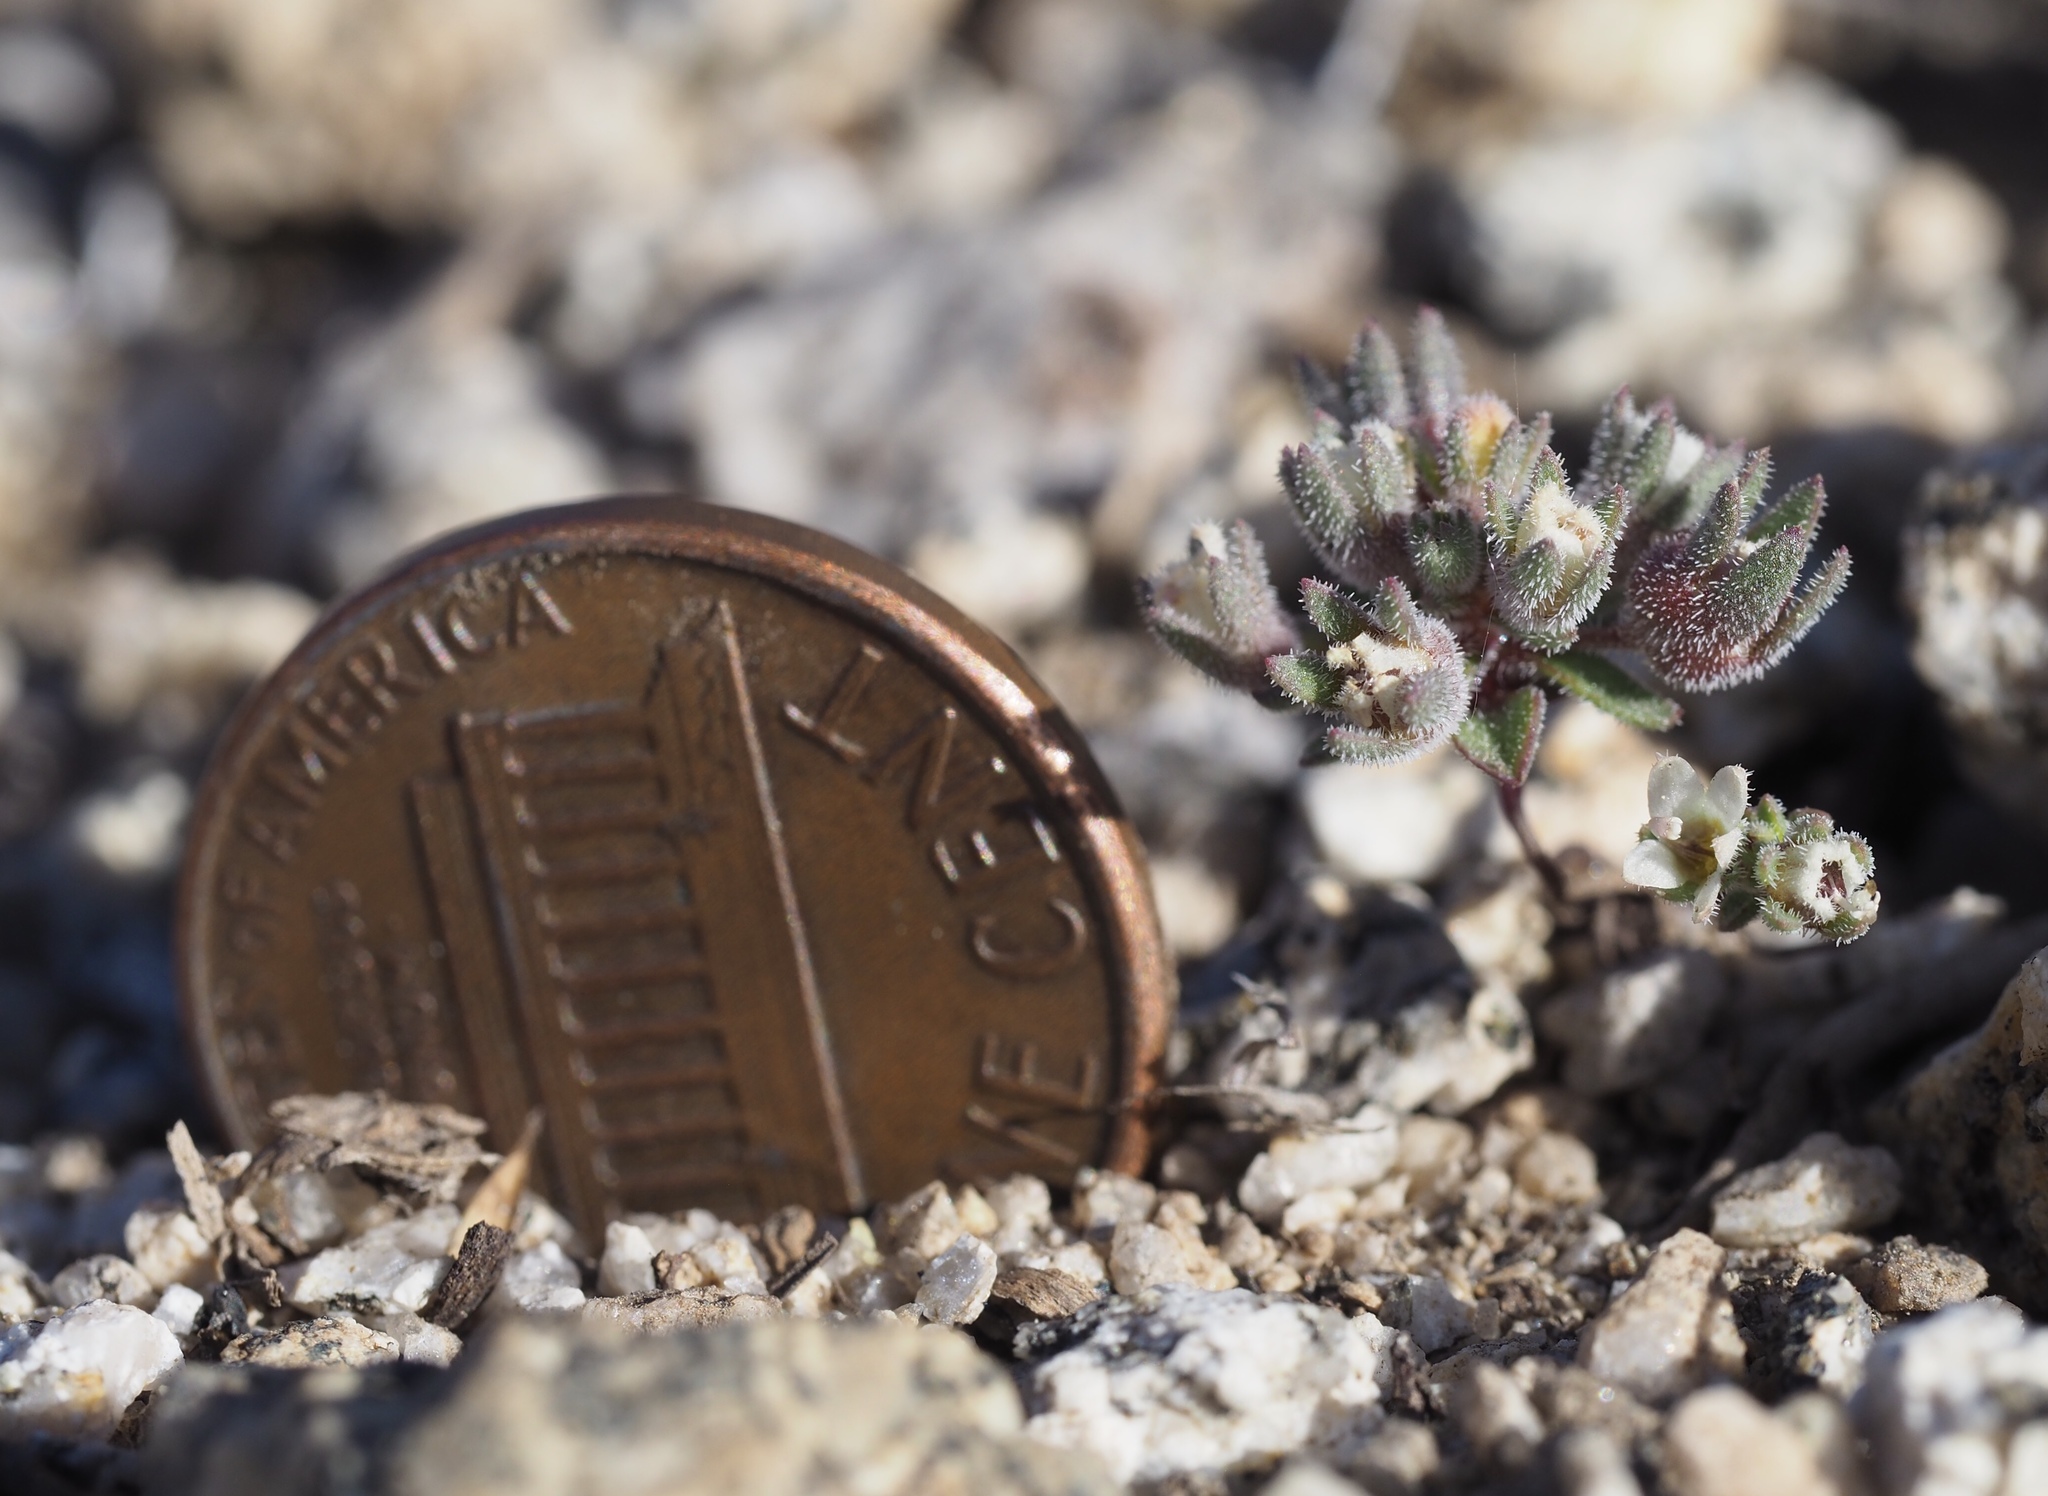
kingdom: Plantae
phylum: Tracheophyta
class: Magnoliopsida
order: Asterales
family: Campanulaceae
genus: Nemacladus
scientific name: Nemacladus twisselmannii
